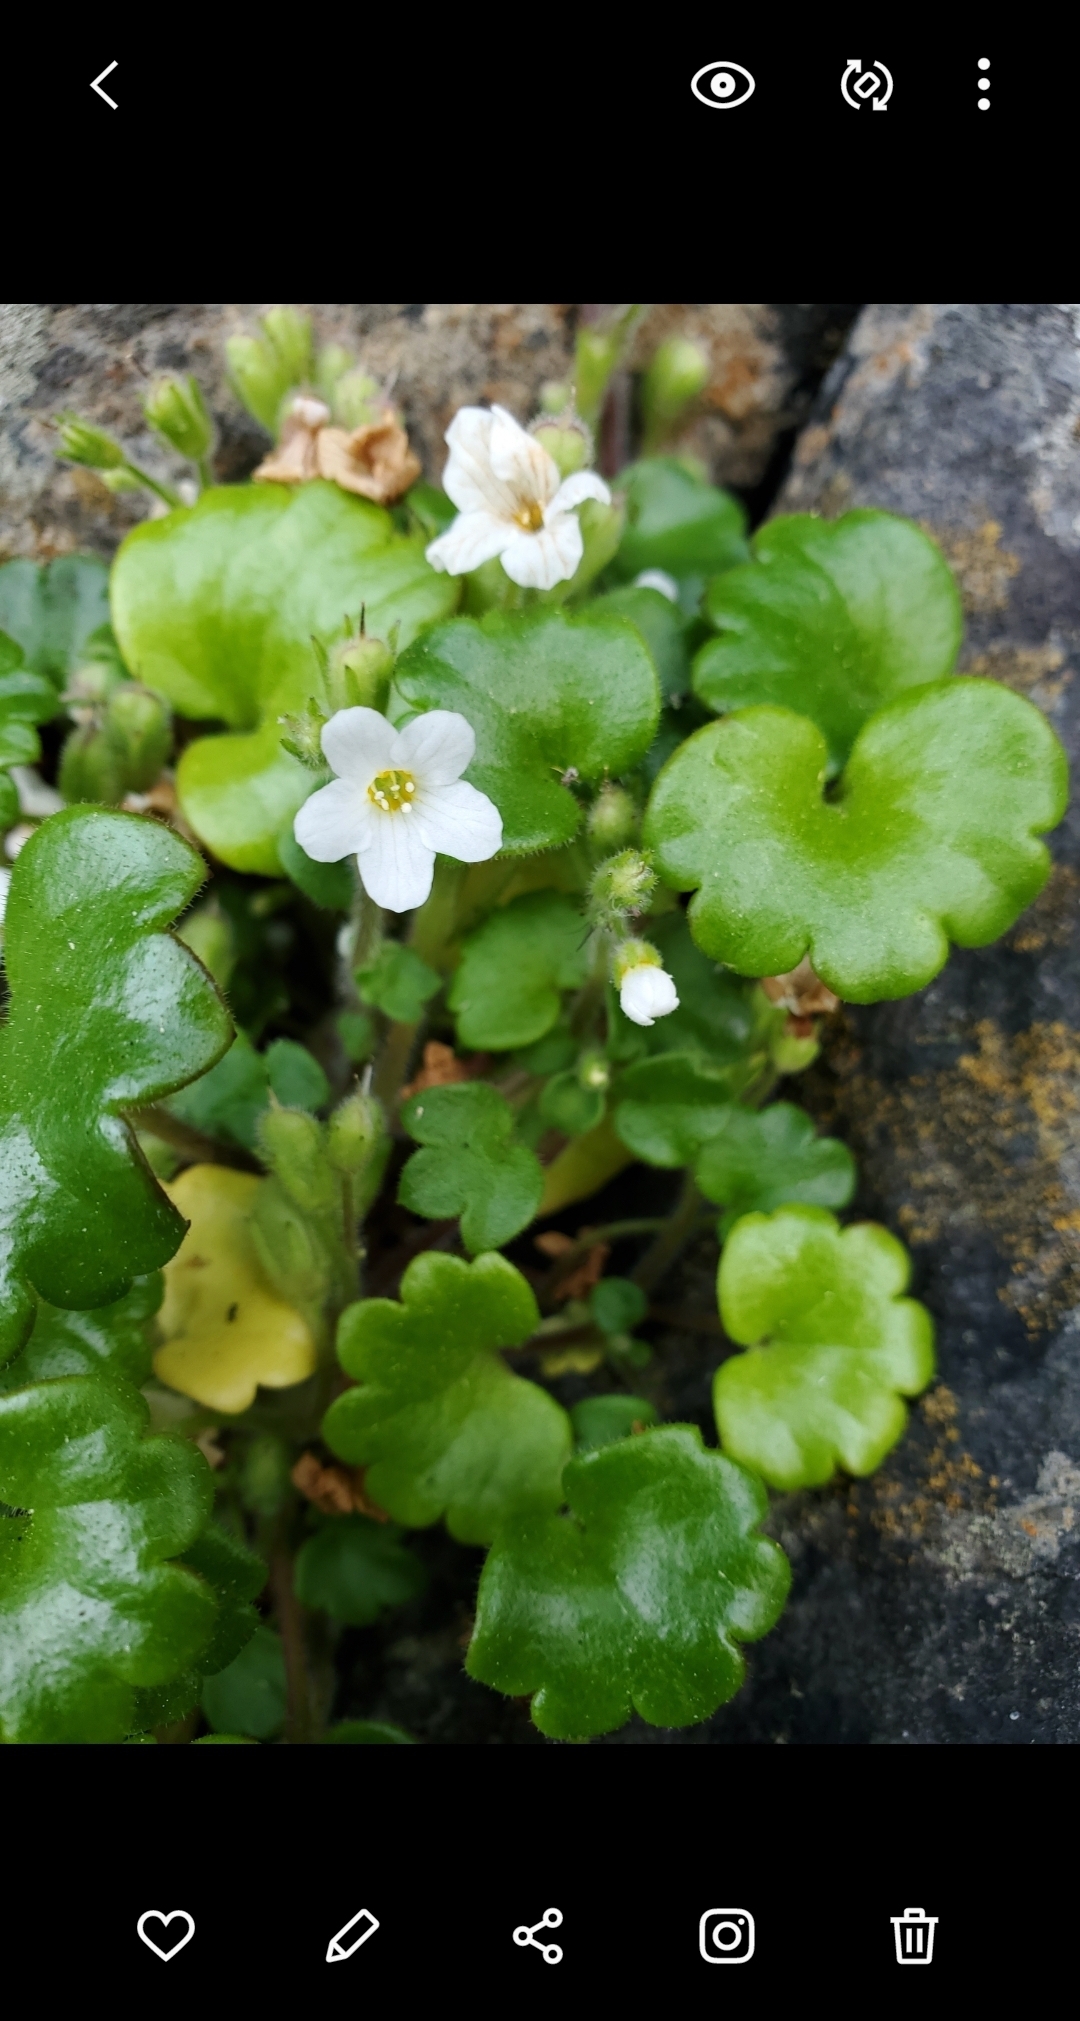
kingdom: Plantae
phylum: Tracheophyta
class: Magnoliopsida
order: Boraginales
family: Hydrophyllaceae
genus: Romanzoffia
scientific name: Romanzoffia tracyi
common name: Tracy's mistmaid
